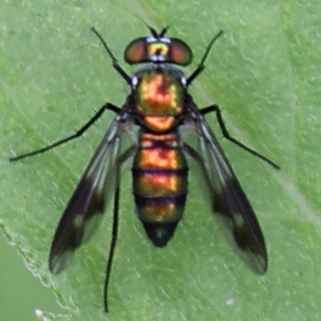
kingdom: Animalia
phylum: Arthropoda
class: Insecta
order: Diptera
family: Dolichopodidae
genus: Condylostylus
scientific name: Condylostylus patibulatus
